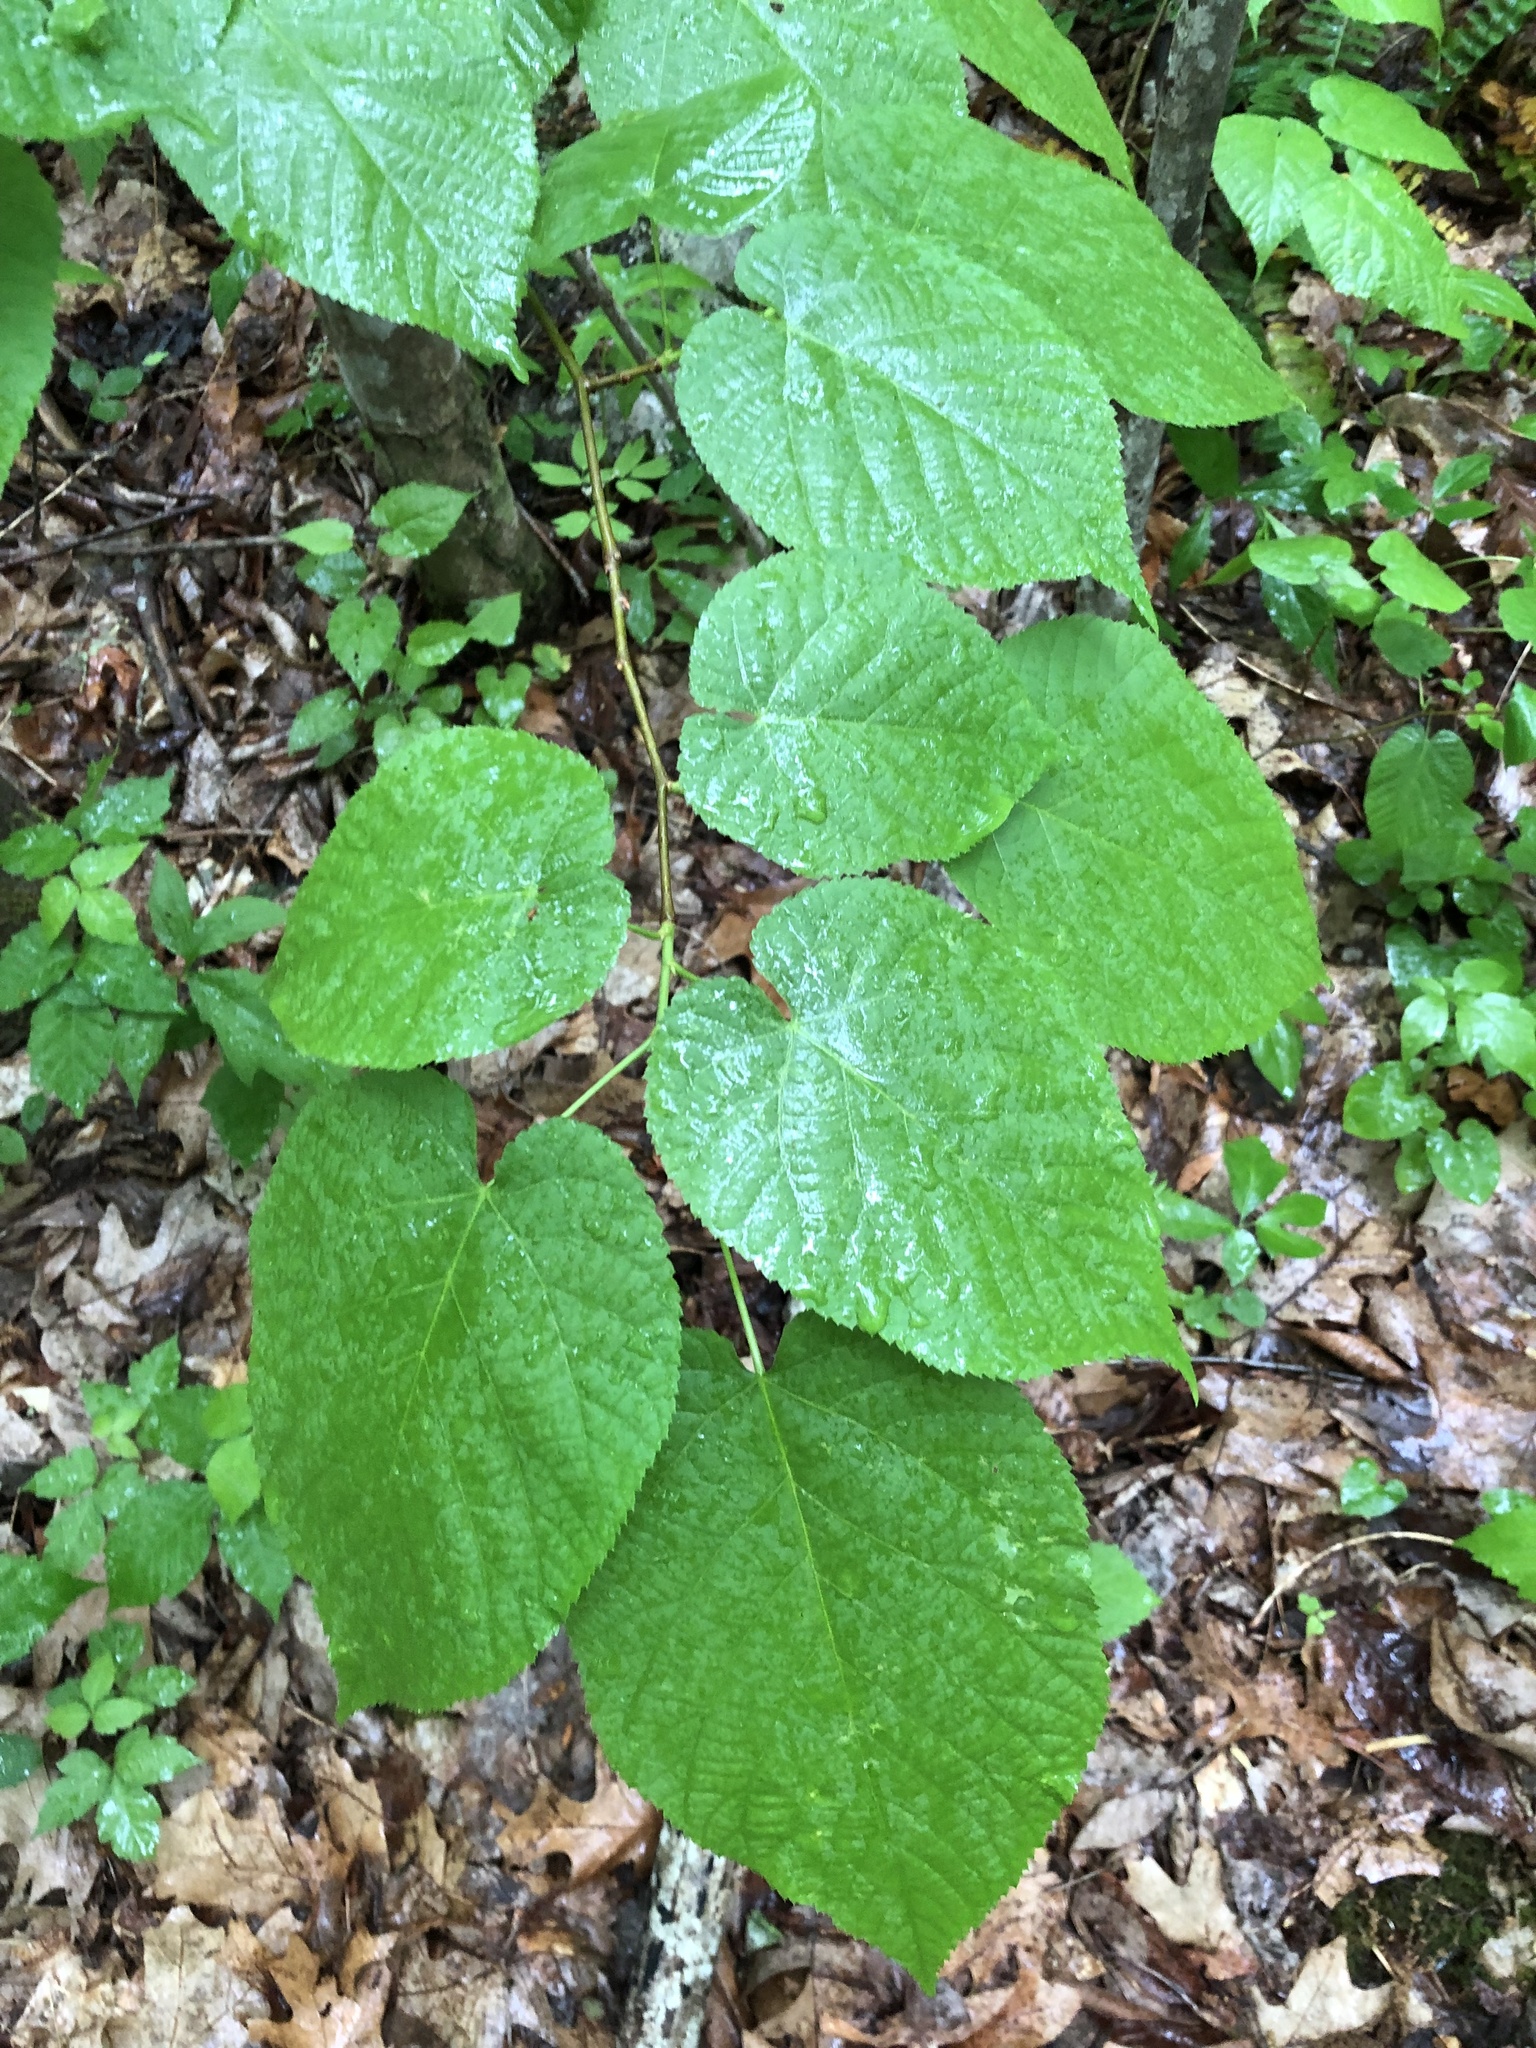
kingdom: Plantae
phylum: Tracheophyta
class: Magnoliopsida
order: Malvales
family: Malvaceae
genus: Tilia
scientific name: Tilia americana
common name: Basswood
